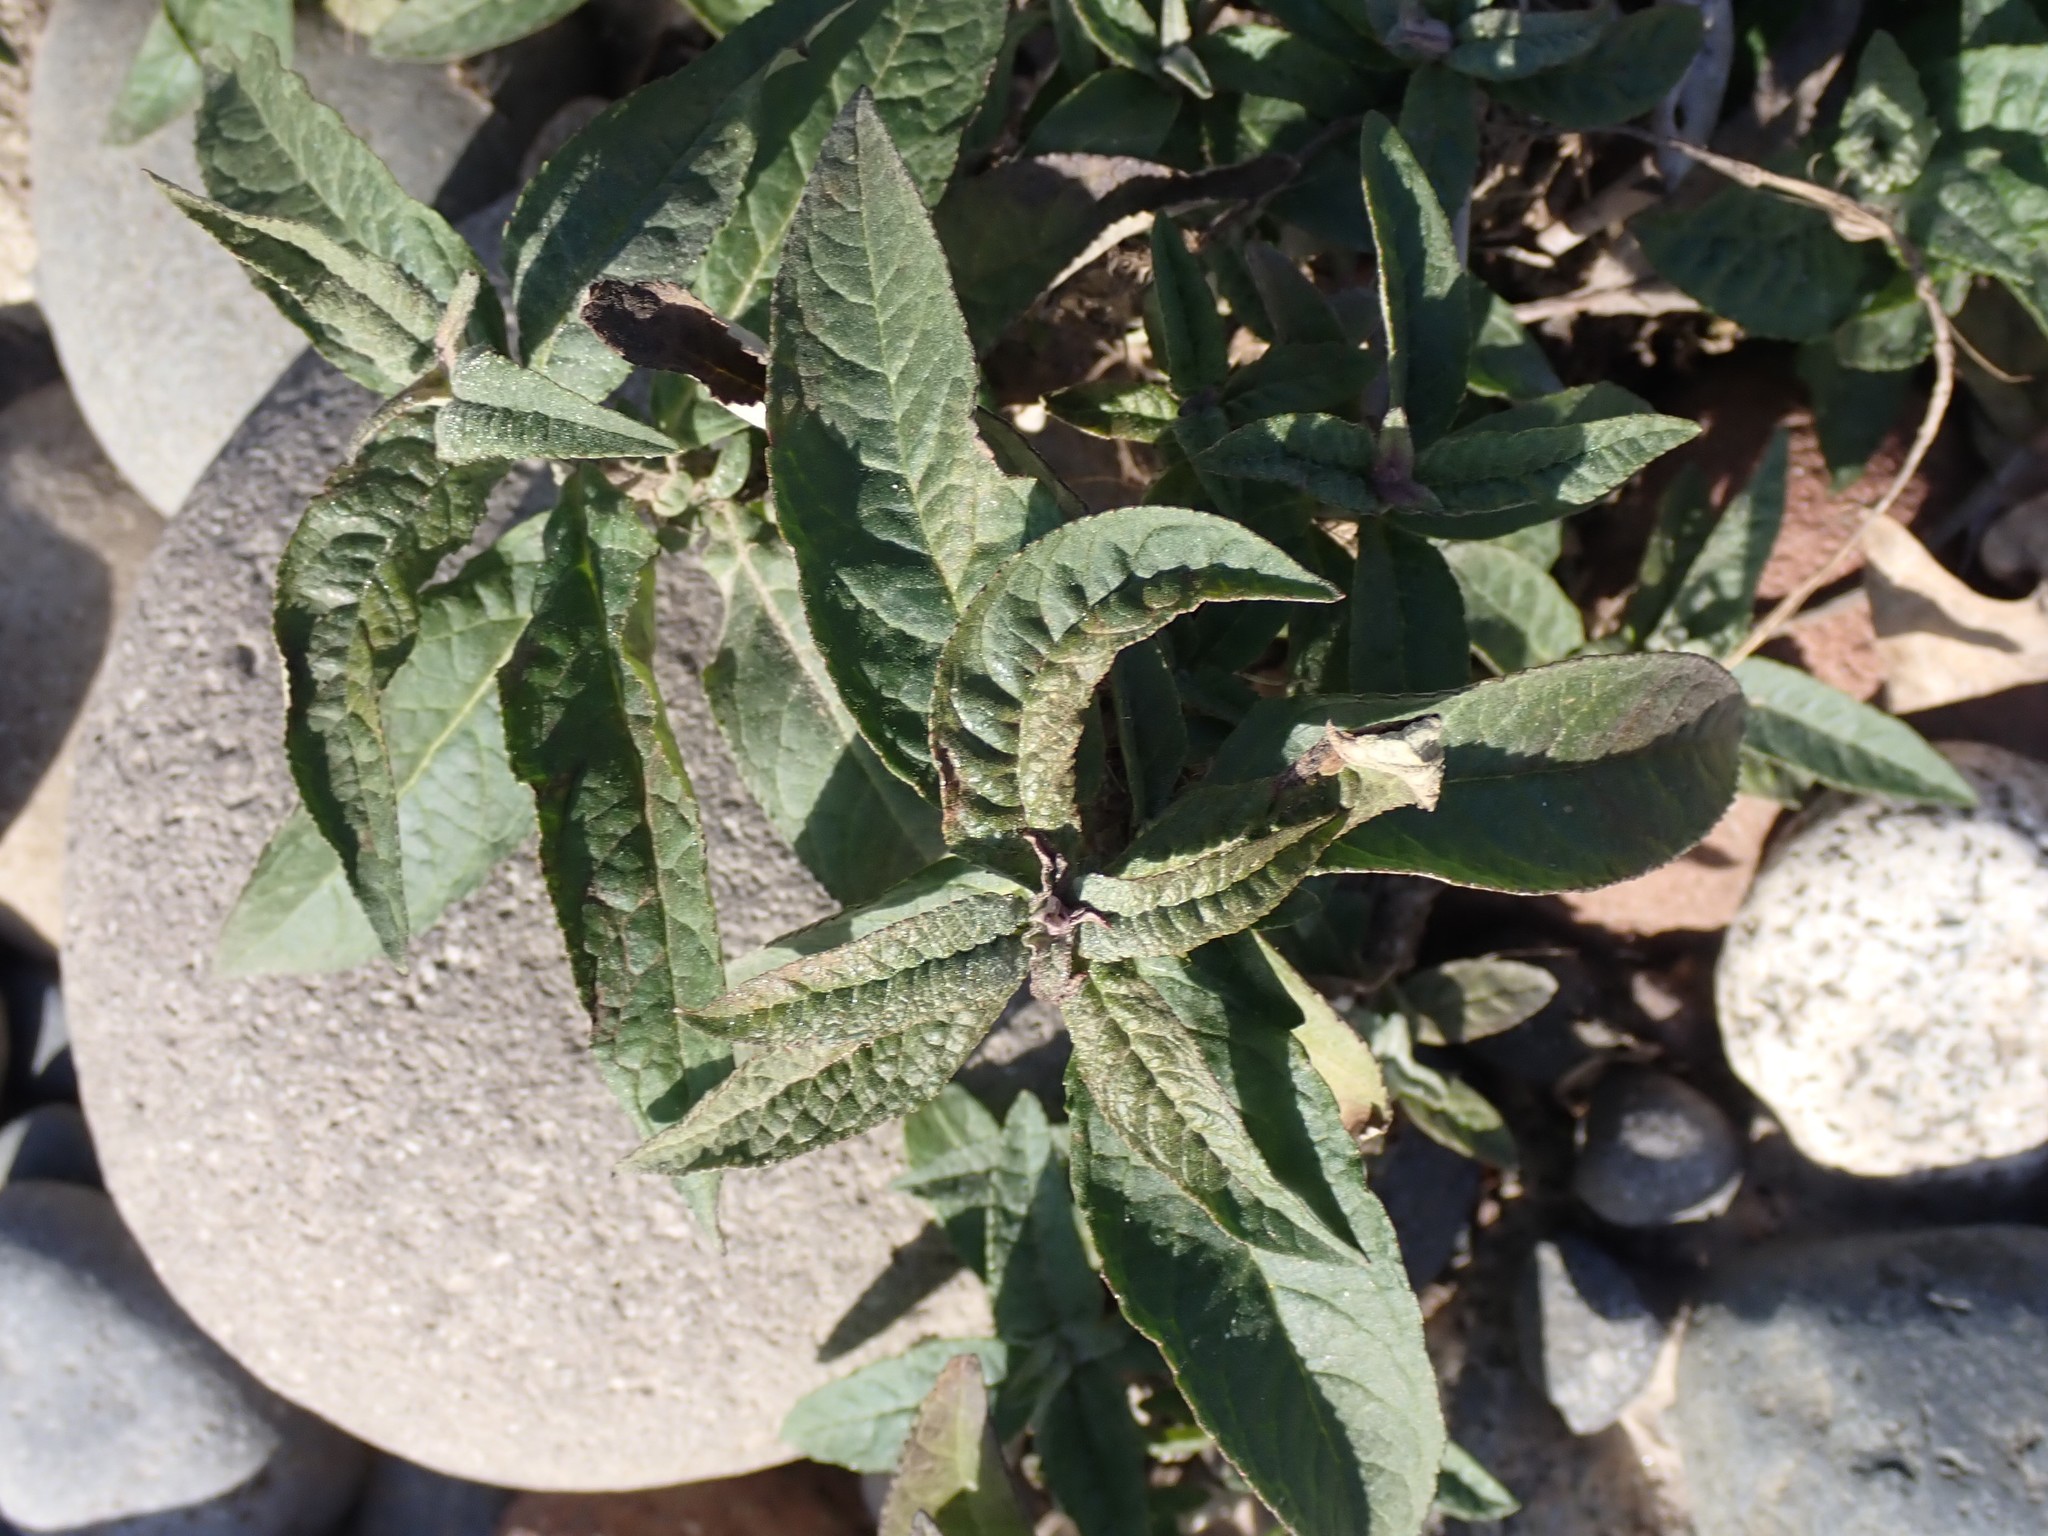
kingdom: Plantae
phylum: Tracheophyta
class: Magnoliopsida
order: Lamiales
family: Scrophulariaceae
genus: Buddleja
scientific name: Buddleja davidii
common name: Butterfly-bush
